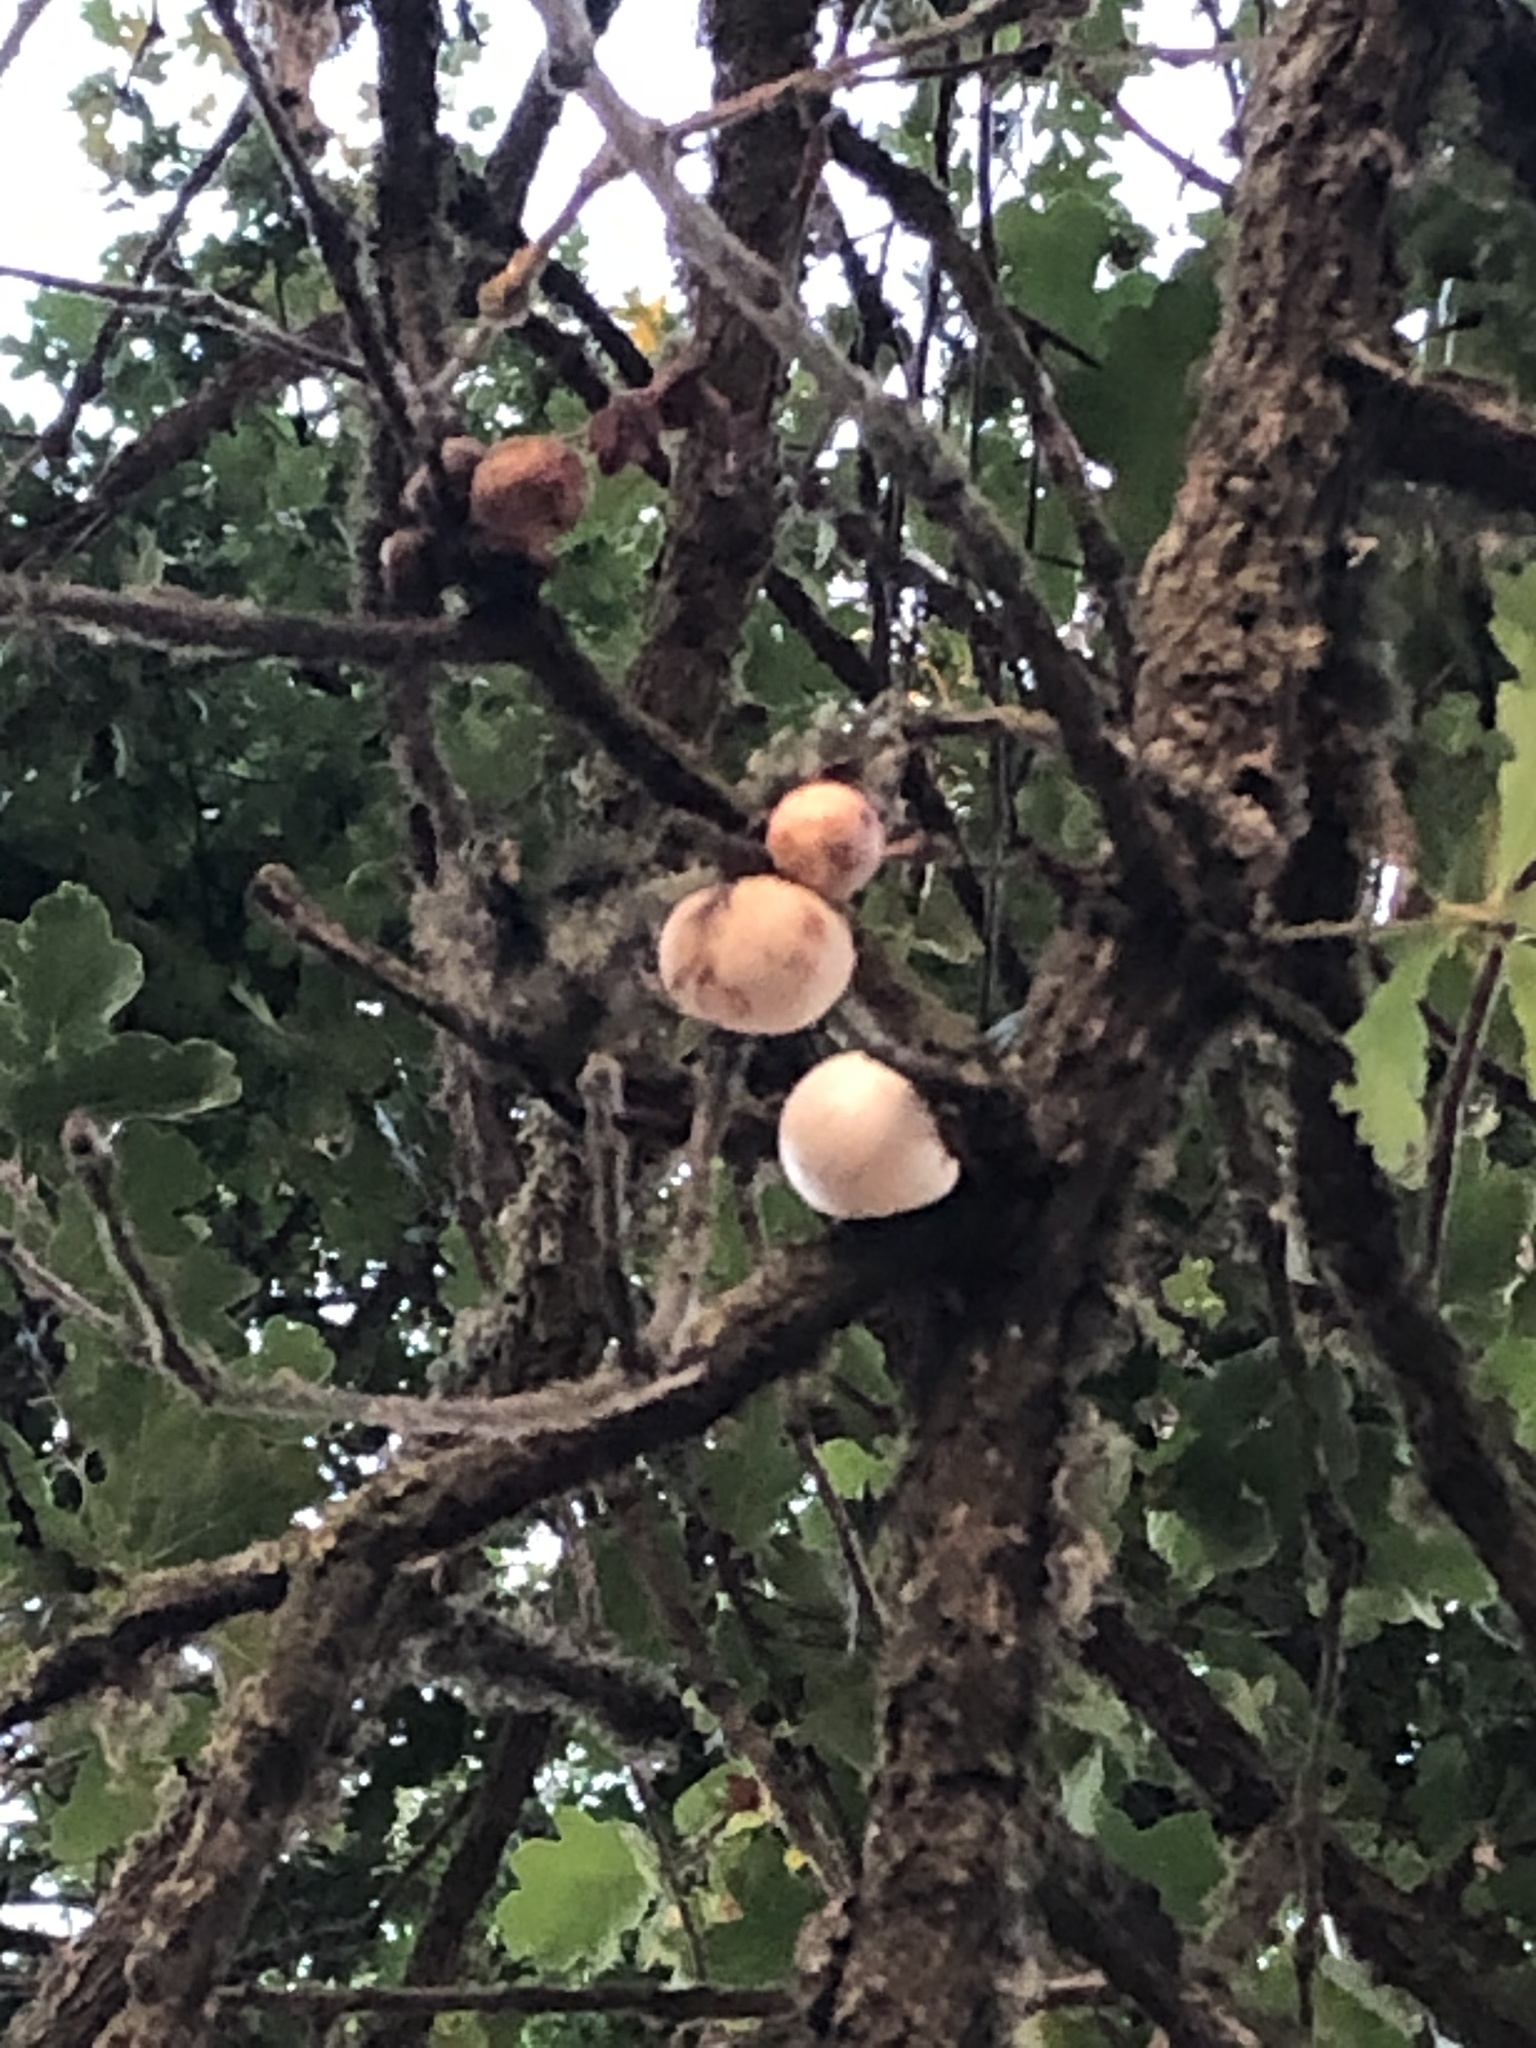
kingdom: Animalia
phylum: Arthropoda
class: Insecta
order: Hymenoptera
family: Cynipidae
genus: Andricus
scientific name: Andricus quercuscalifornicus
